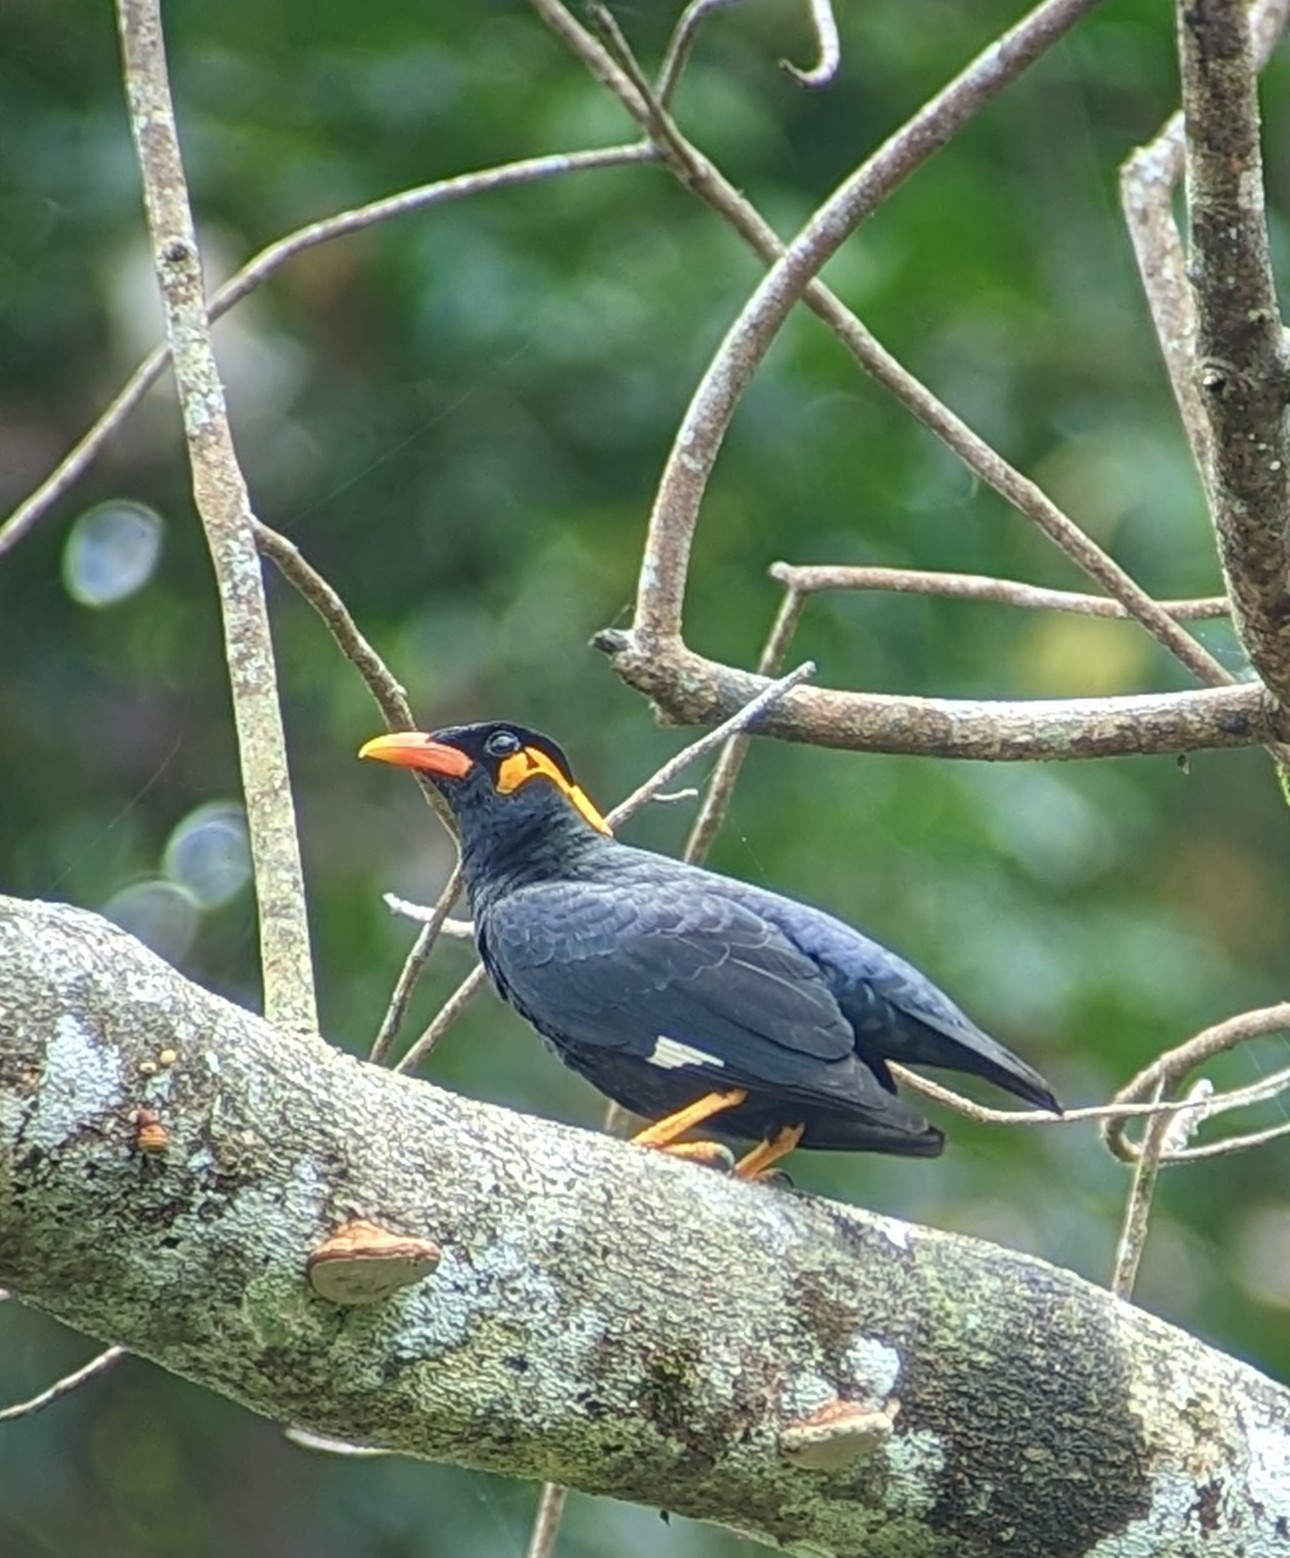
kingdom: Animalia
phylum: Chordata
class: Aves
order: Passeriformes
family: Sturnidae
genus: Gracula
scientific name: Gracula religiosa
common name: Common hill myna
